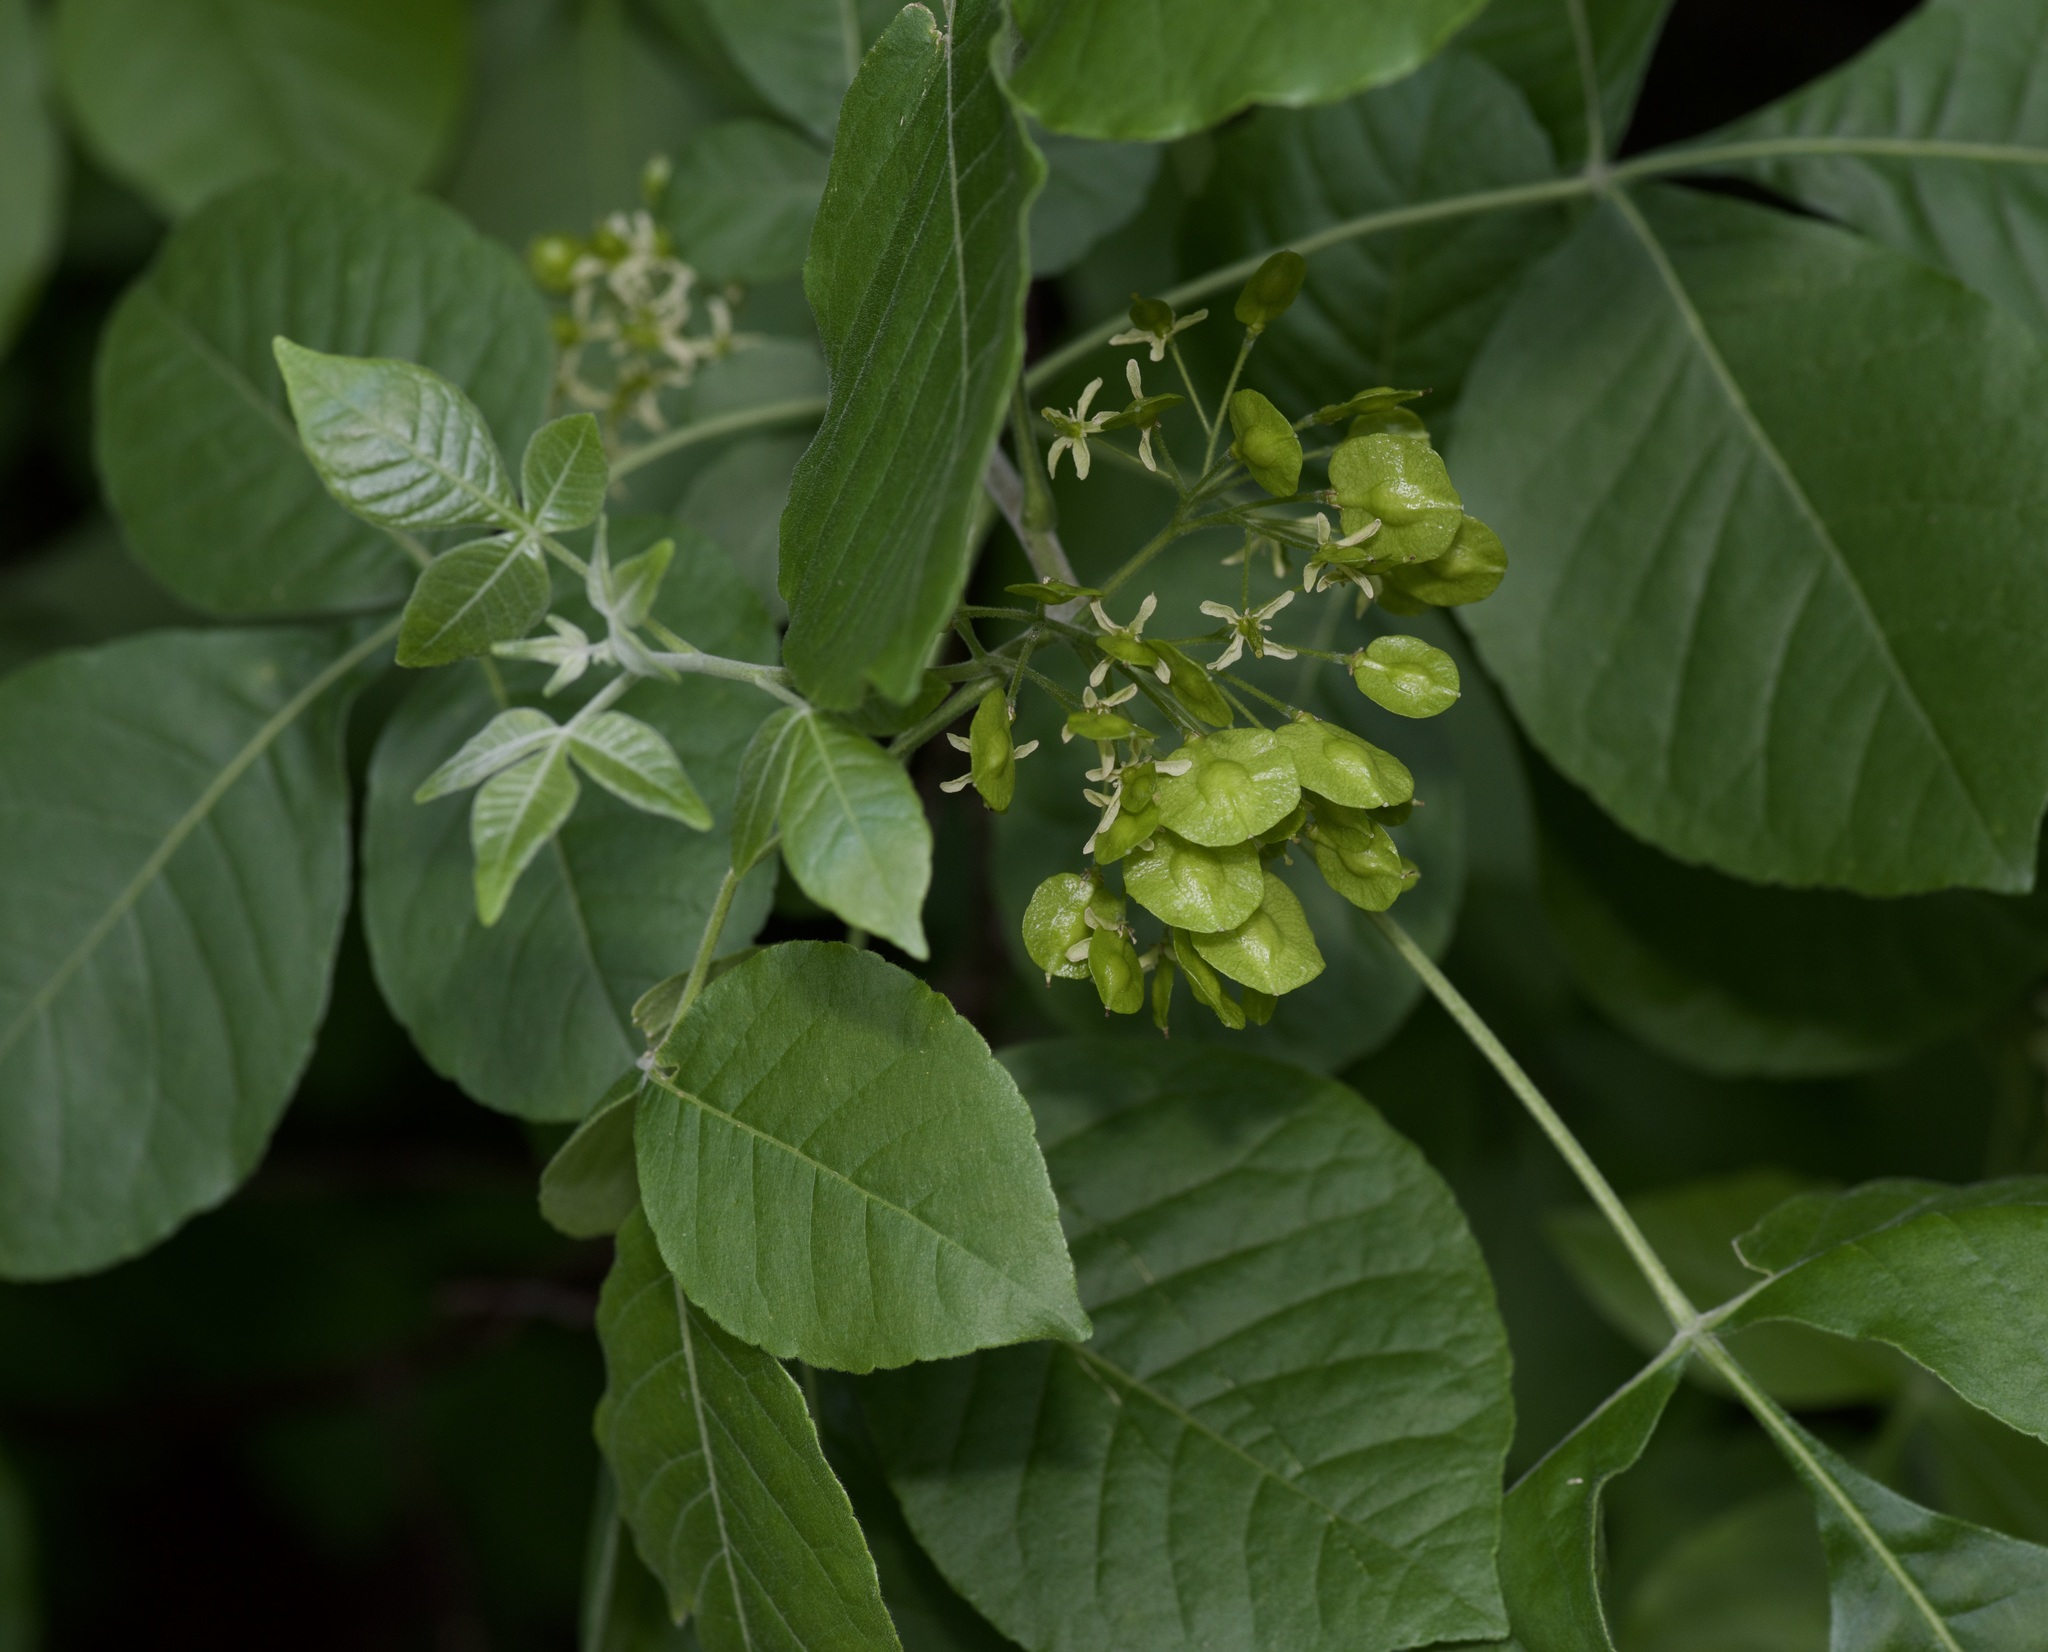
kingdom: Plantae
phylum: Tracheophyta
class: Magnoliopsida
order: Sapindales
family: Rutaceae
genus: Ptelea
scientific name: Ptelea trifoliata
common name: Common hop-tree
